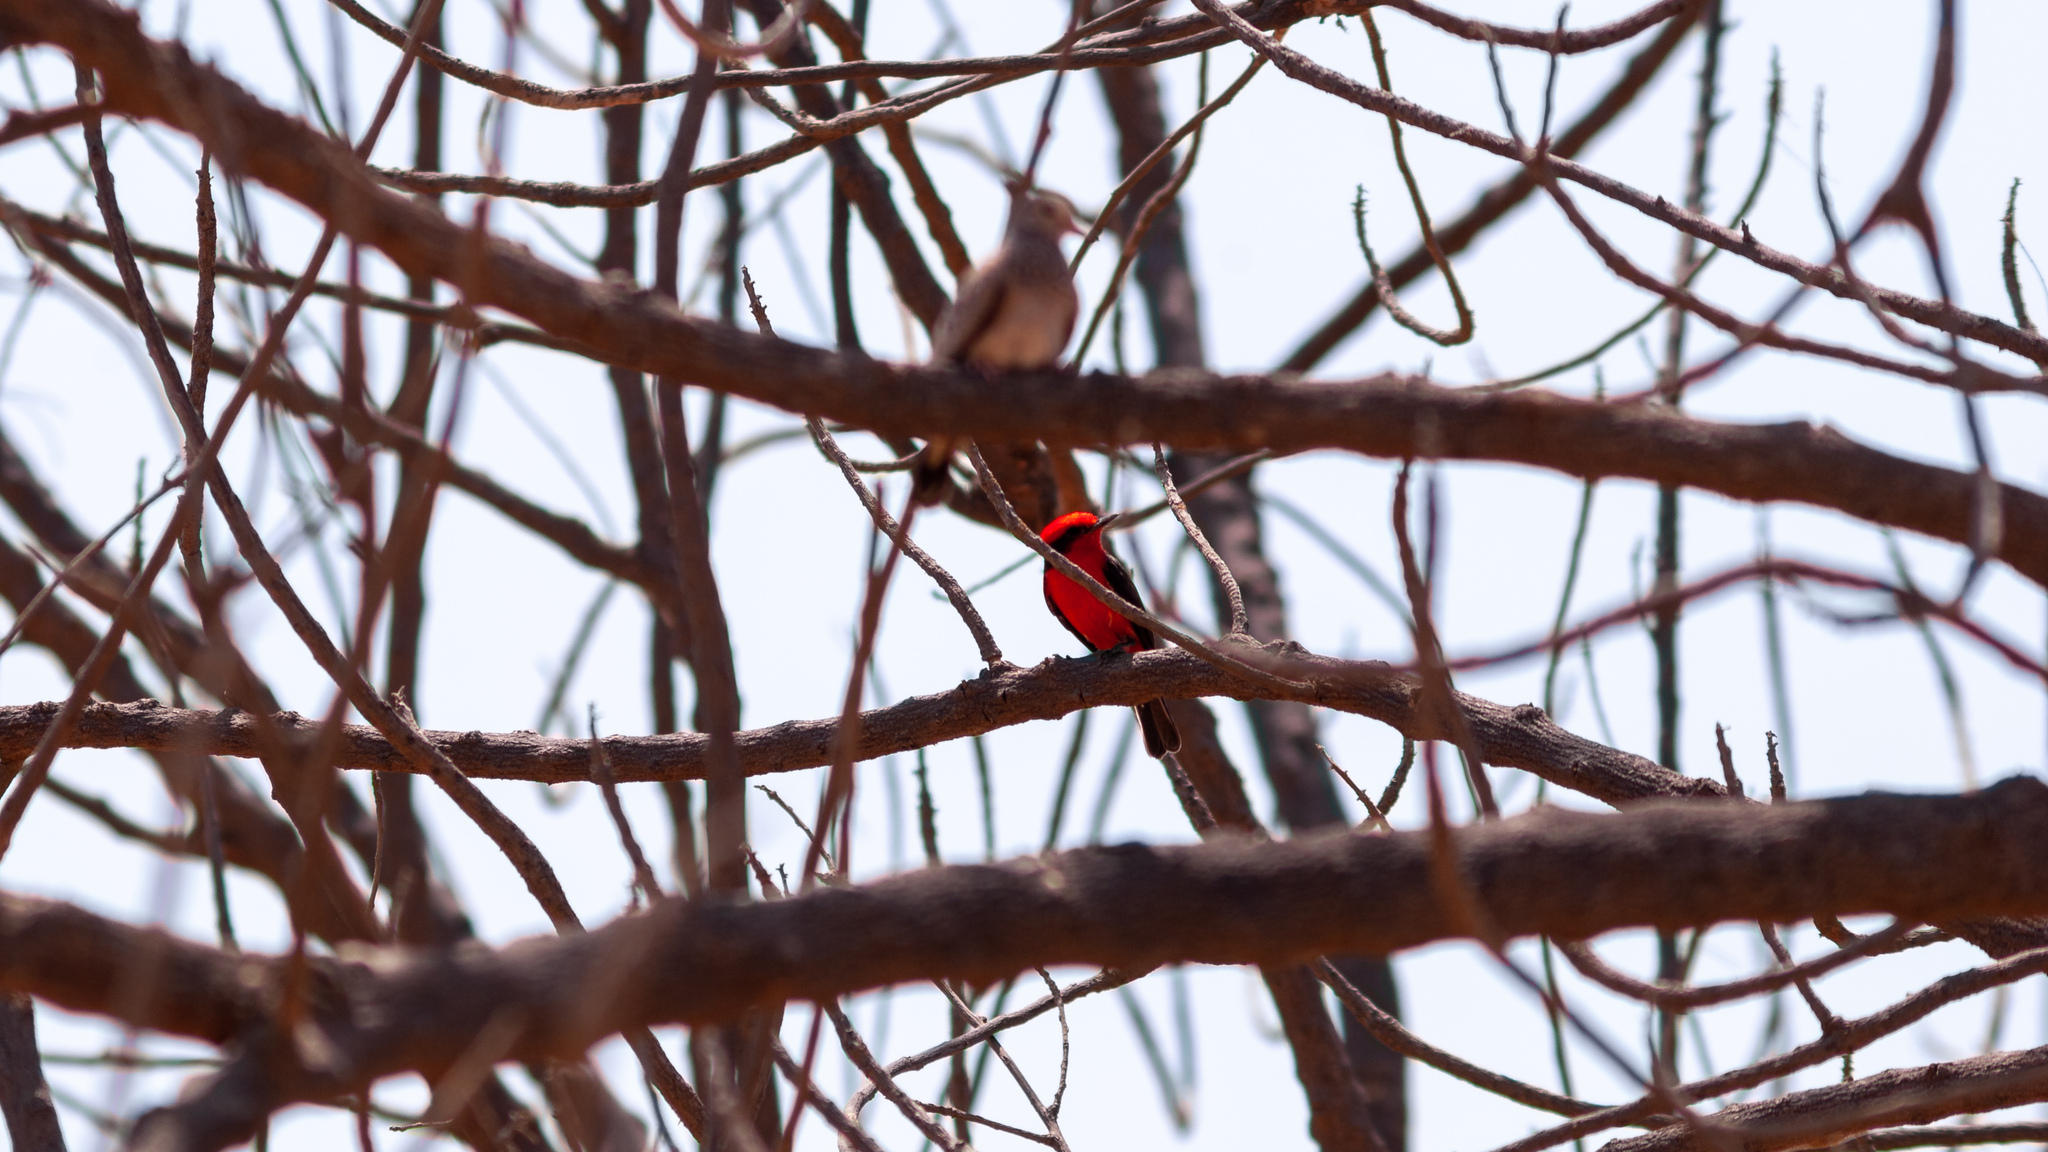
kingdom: Animalia
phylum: Chordata
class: Aves
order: Passeriformes
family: Tyrannidae
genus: Pyrocephalus
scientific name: Pyrocephalus rubinus
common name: Vermilion flycatcher
